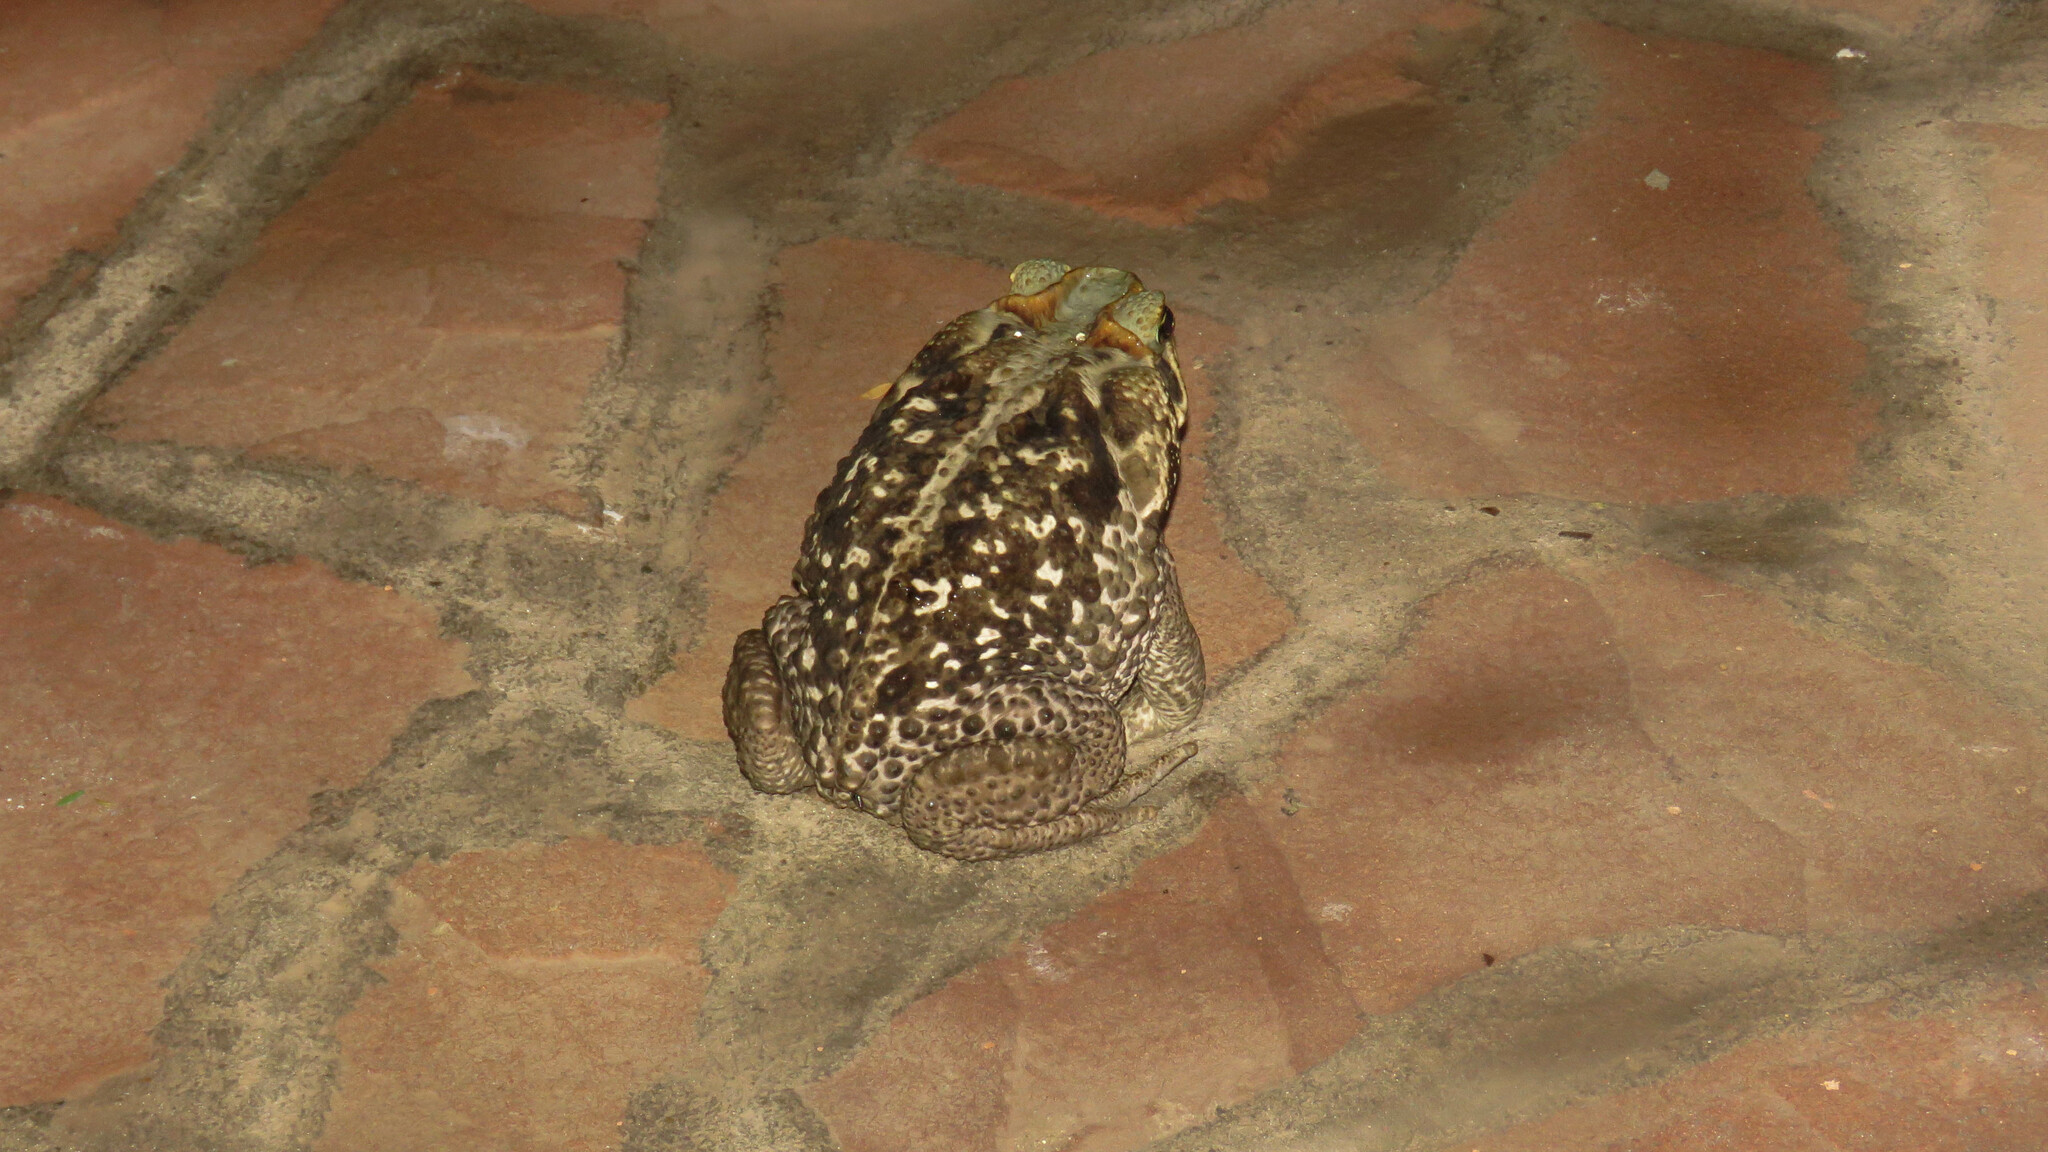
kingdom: Animalia
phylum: Chordata
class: Amphibia
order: Anura
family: Bufonidae
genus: Rhinella
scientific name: Rhinella diptycha
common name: Cope's toad
